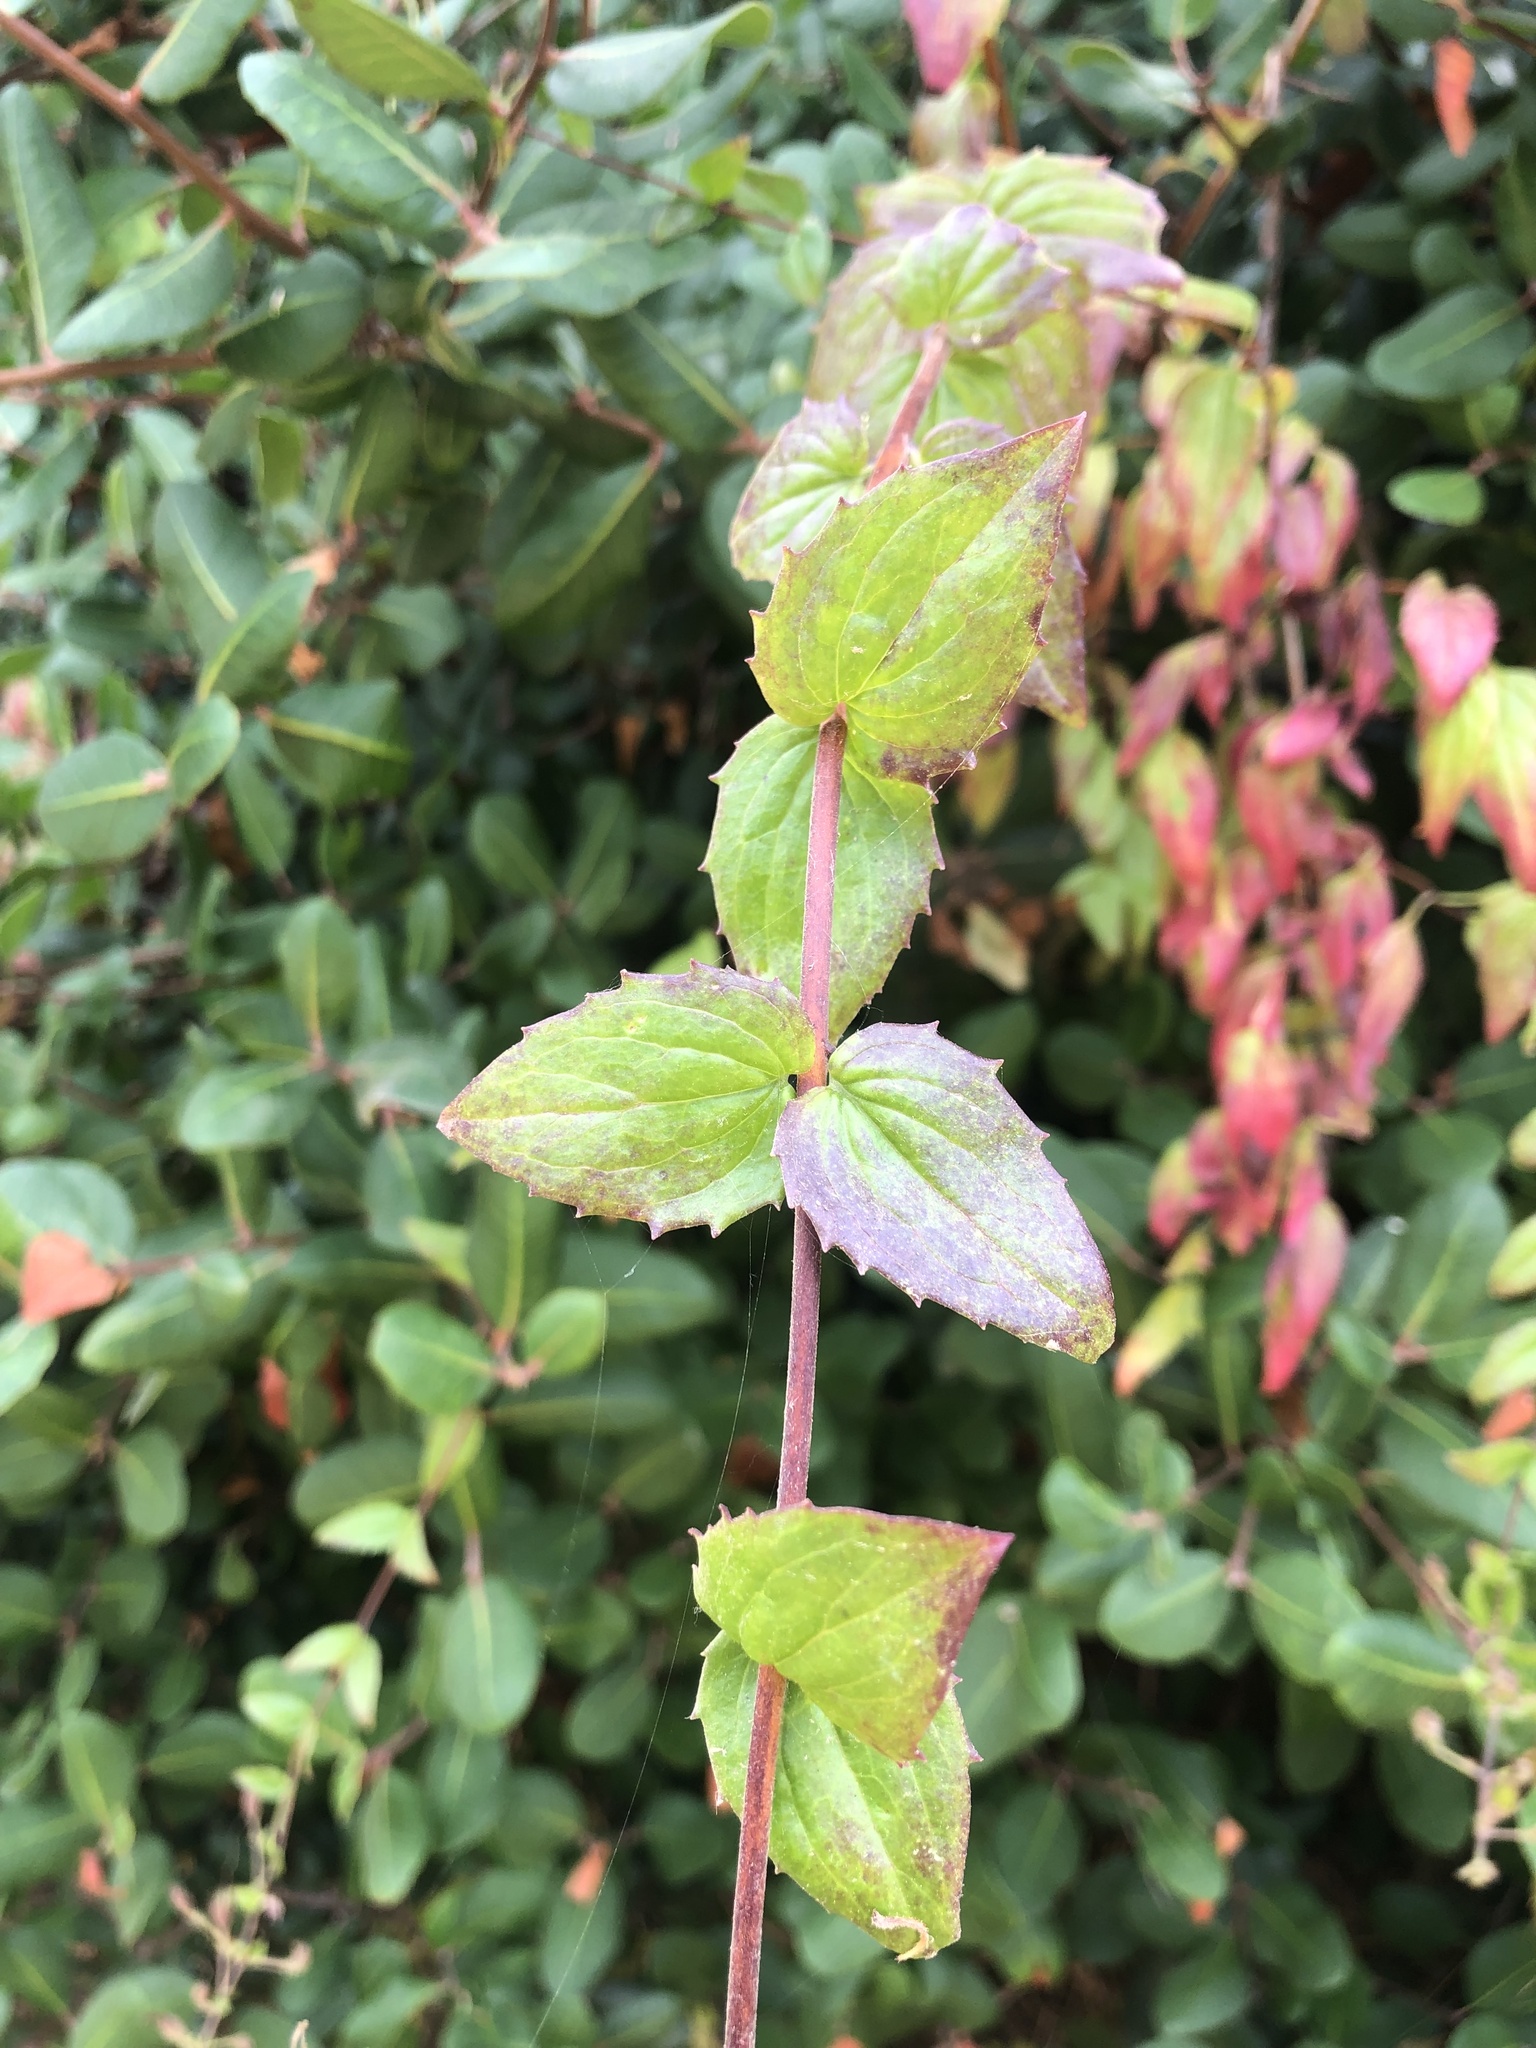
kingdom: Plantae
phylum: Tracheophyta
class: Magnoliopsida
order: Lamiales
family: Plantaginaceae
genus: Keckiella
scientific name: Keckiella cordifolia
